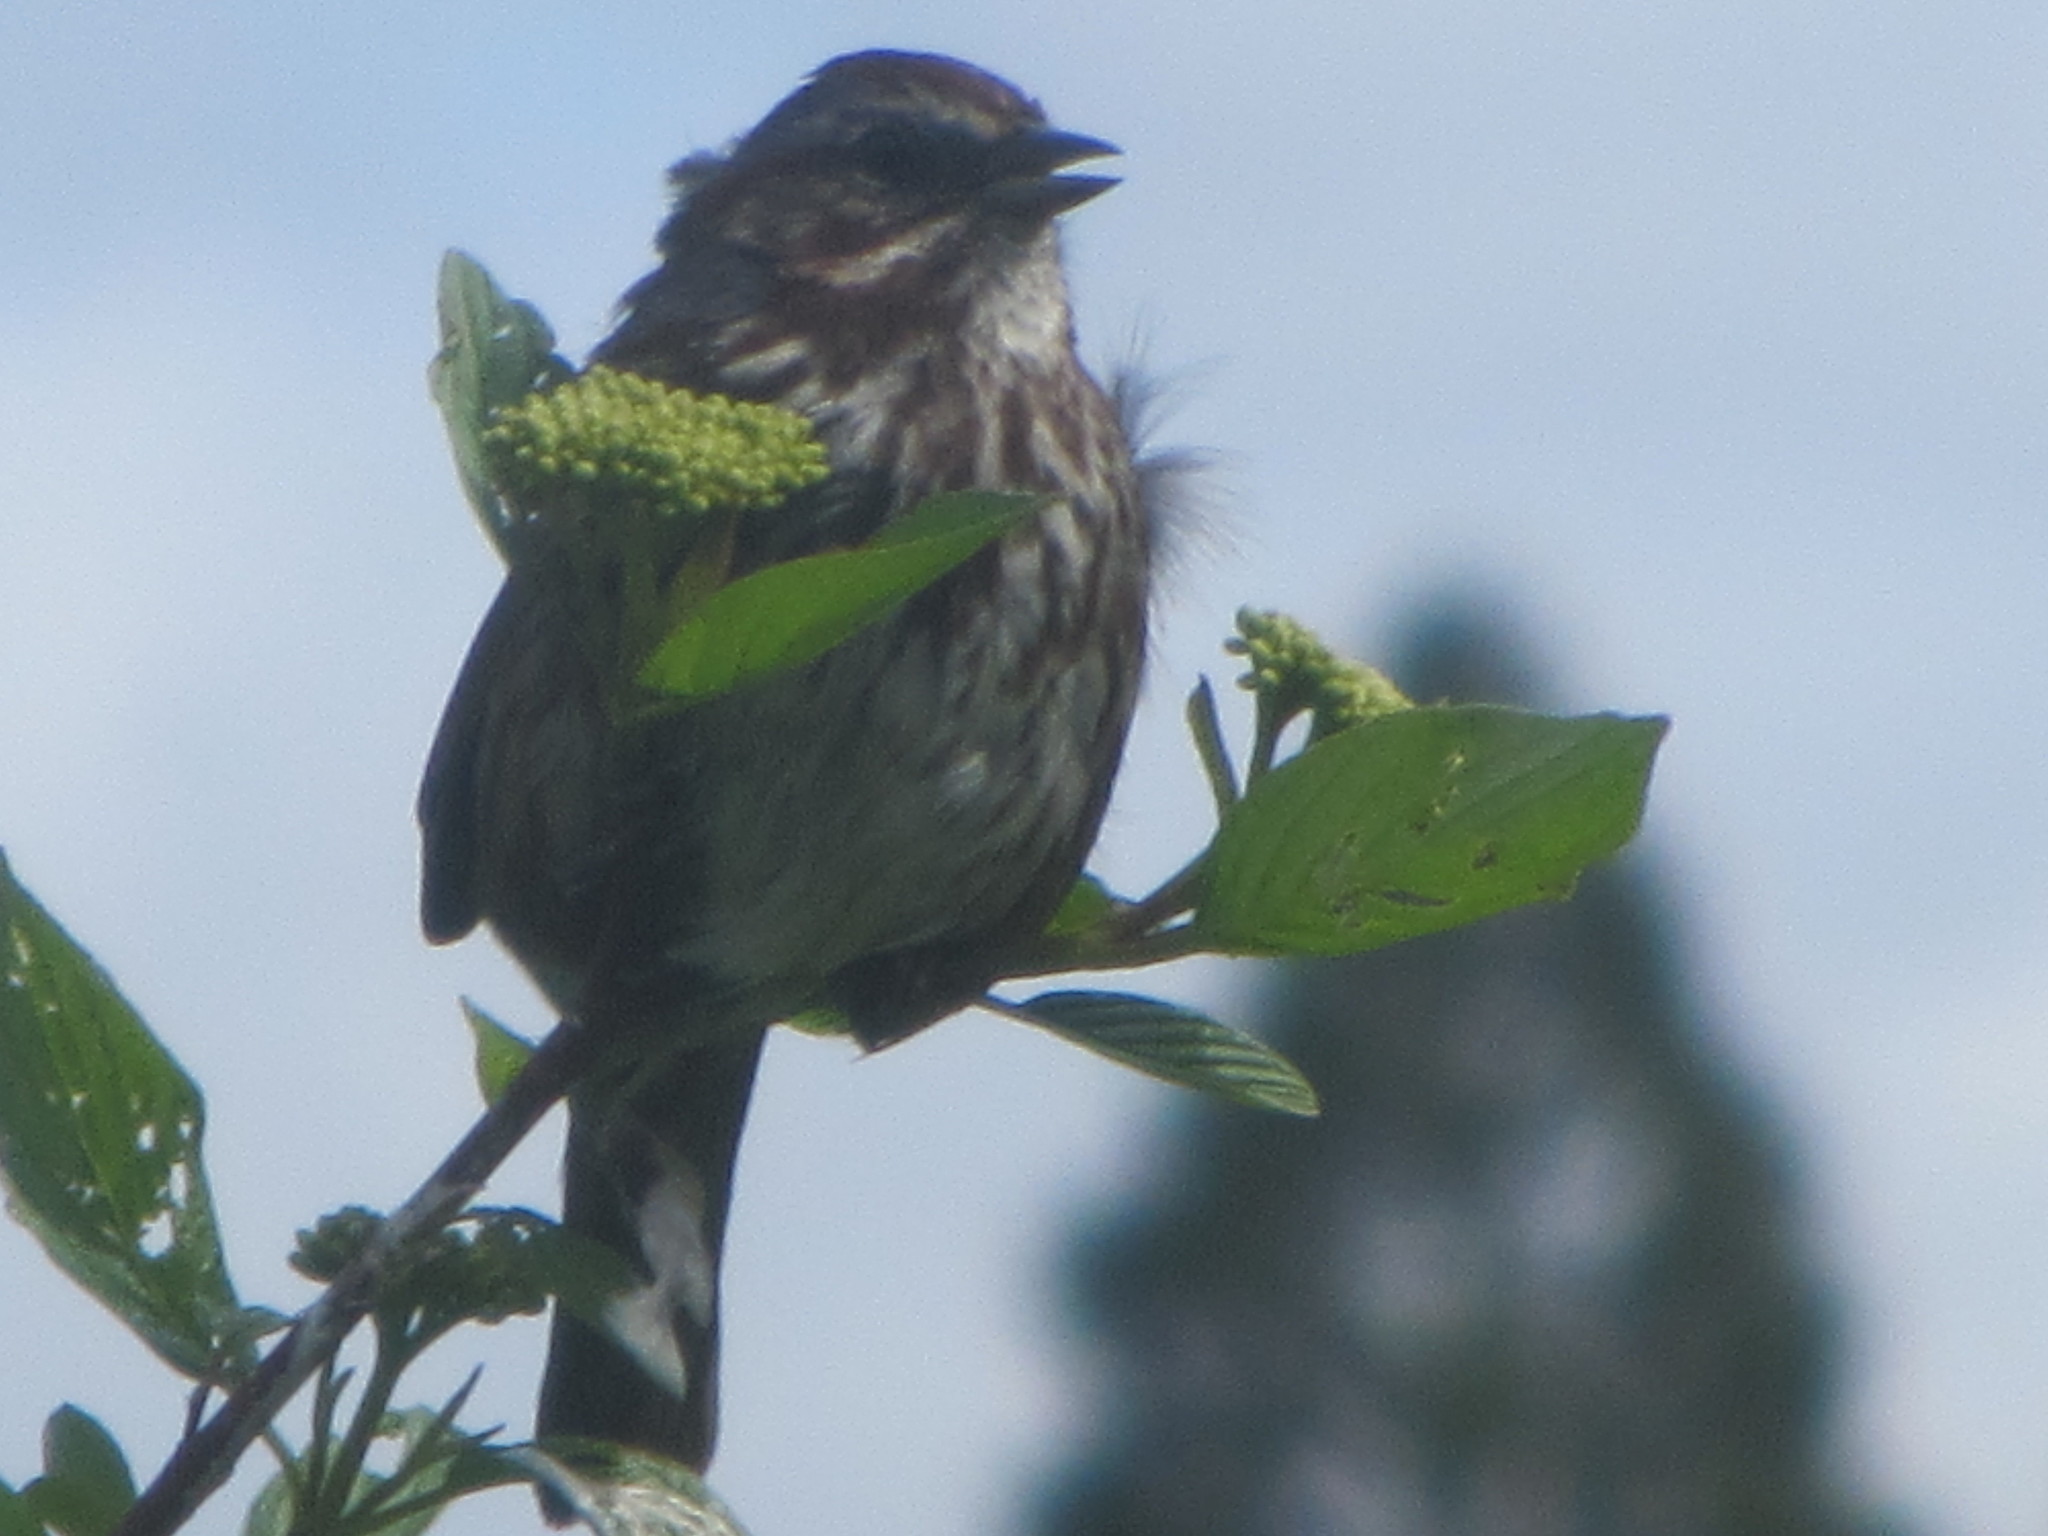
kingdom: Animalia
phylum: Chordata
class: Aves
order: Passeriformes
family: Passerellidae
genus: Melospiza
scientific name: Melospiza melodia
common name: Song sparrow
